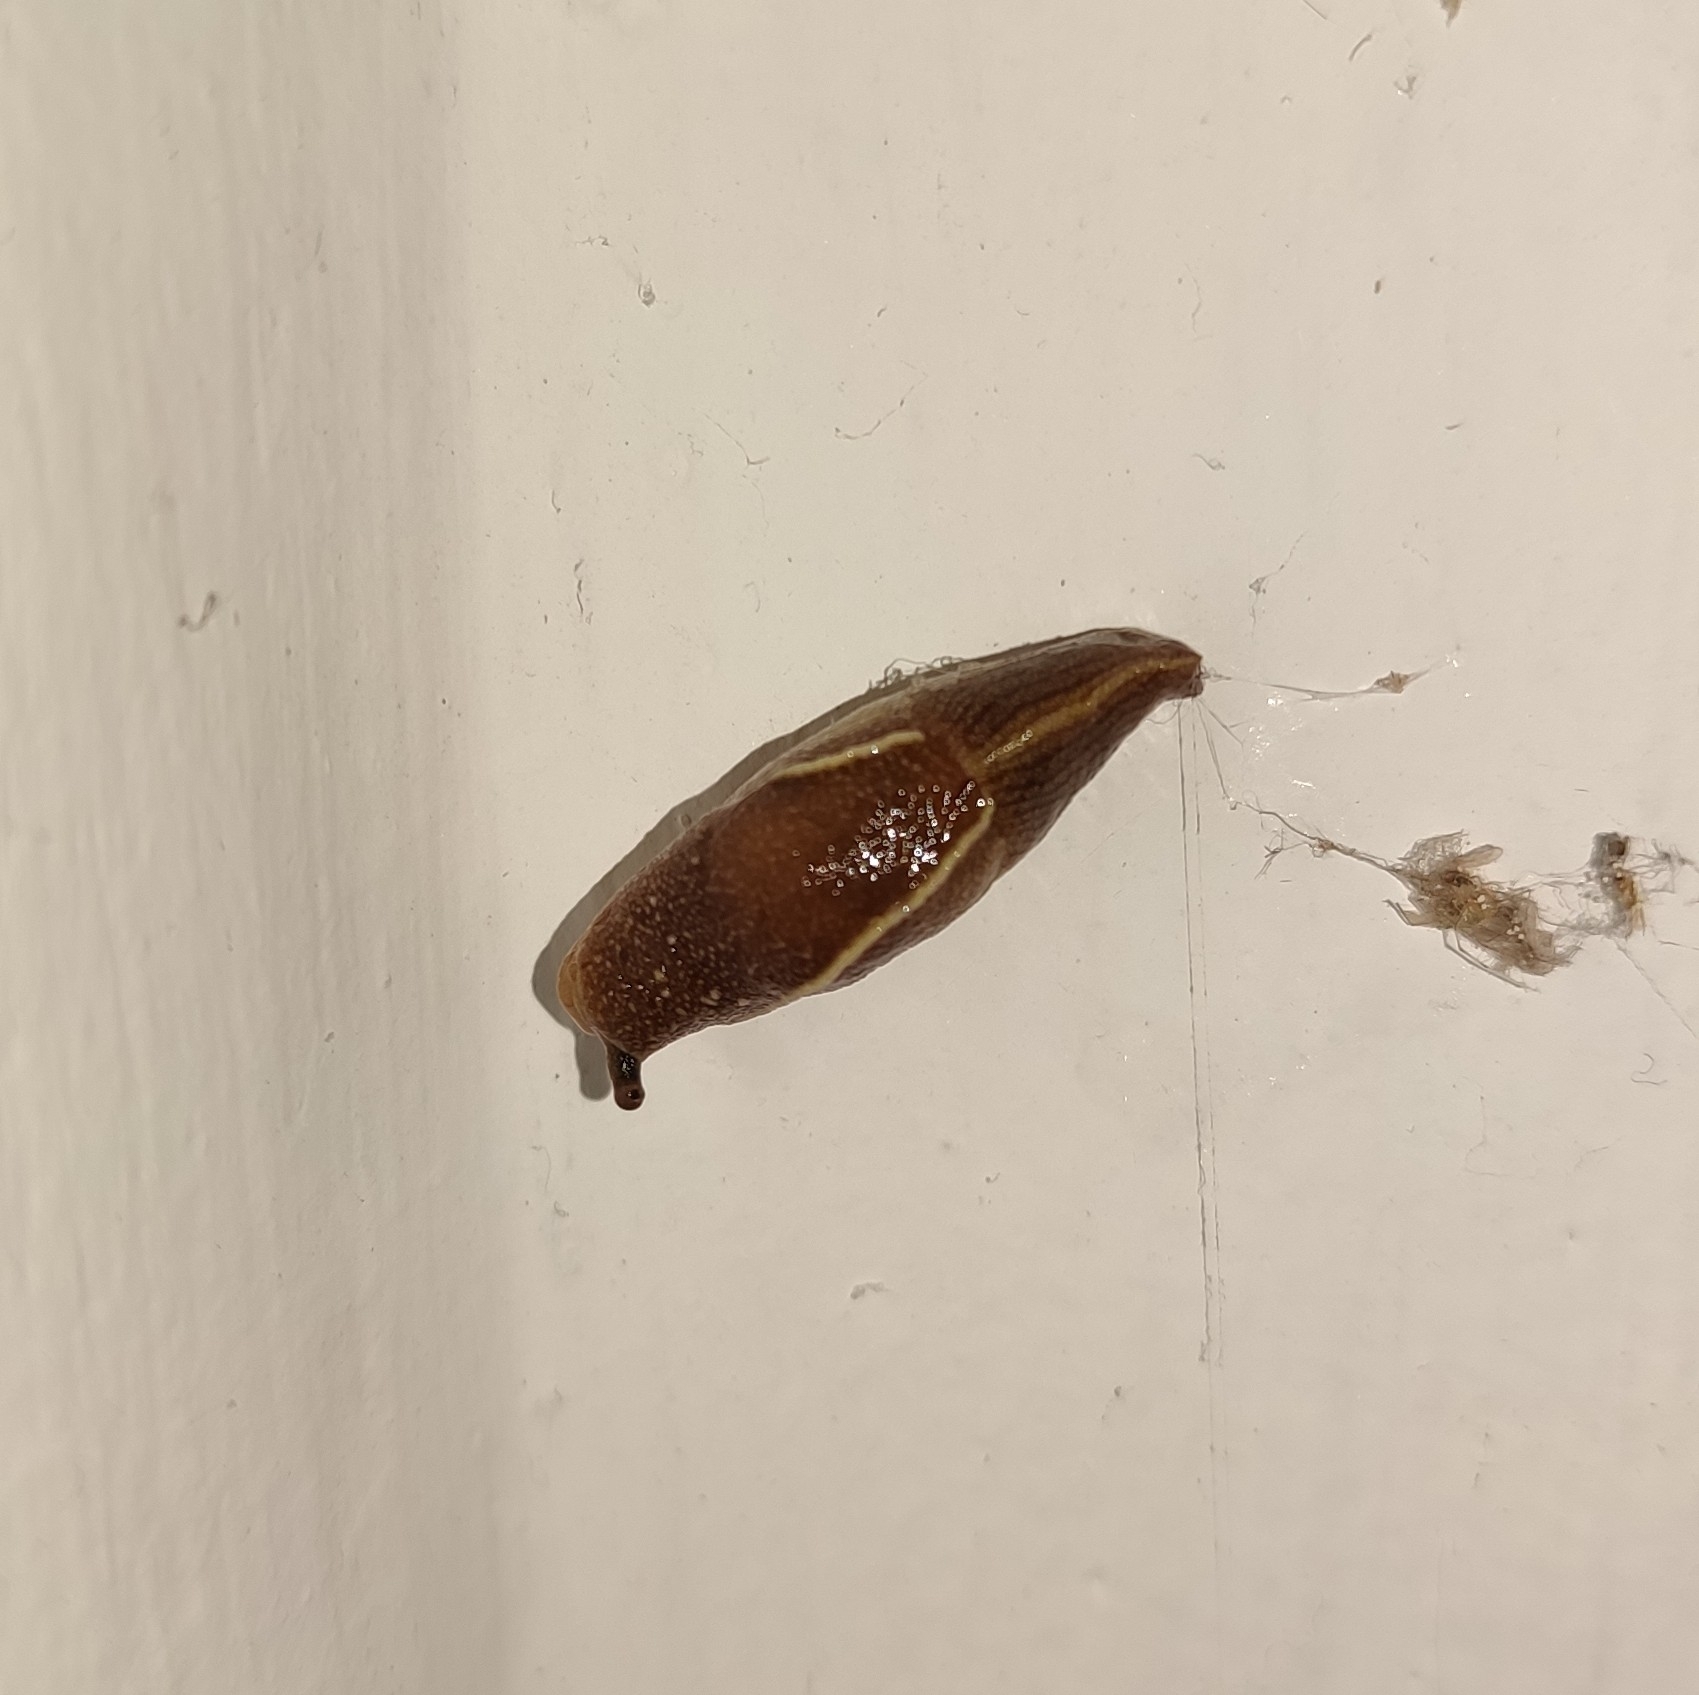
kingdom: Animalia
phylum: Mollusca
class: Gastropoda
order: Stylommatophora
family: Ariophantidae
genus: Mariaella
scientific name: Mariaella dussumieri
